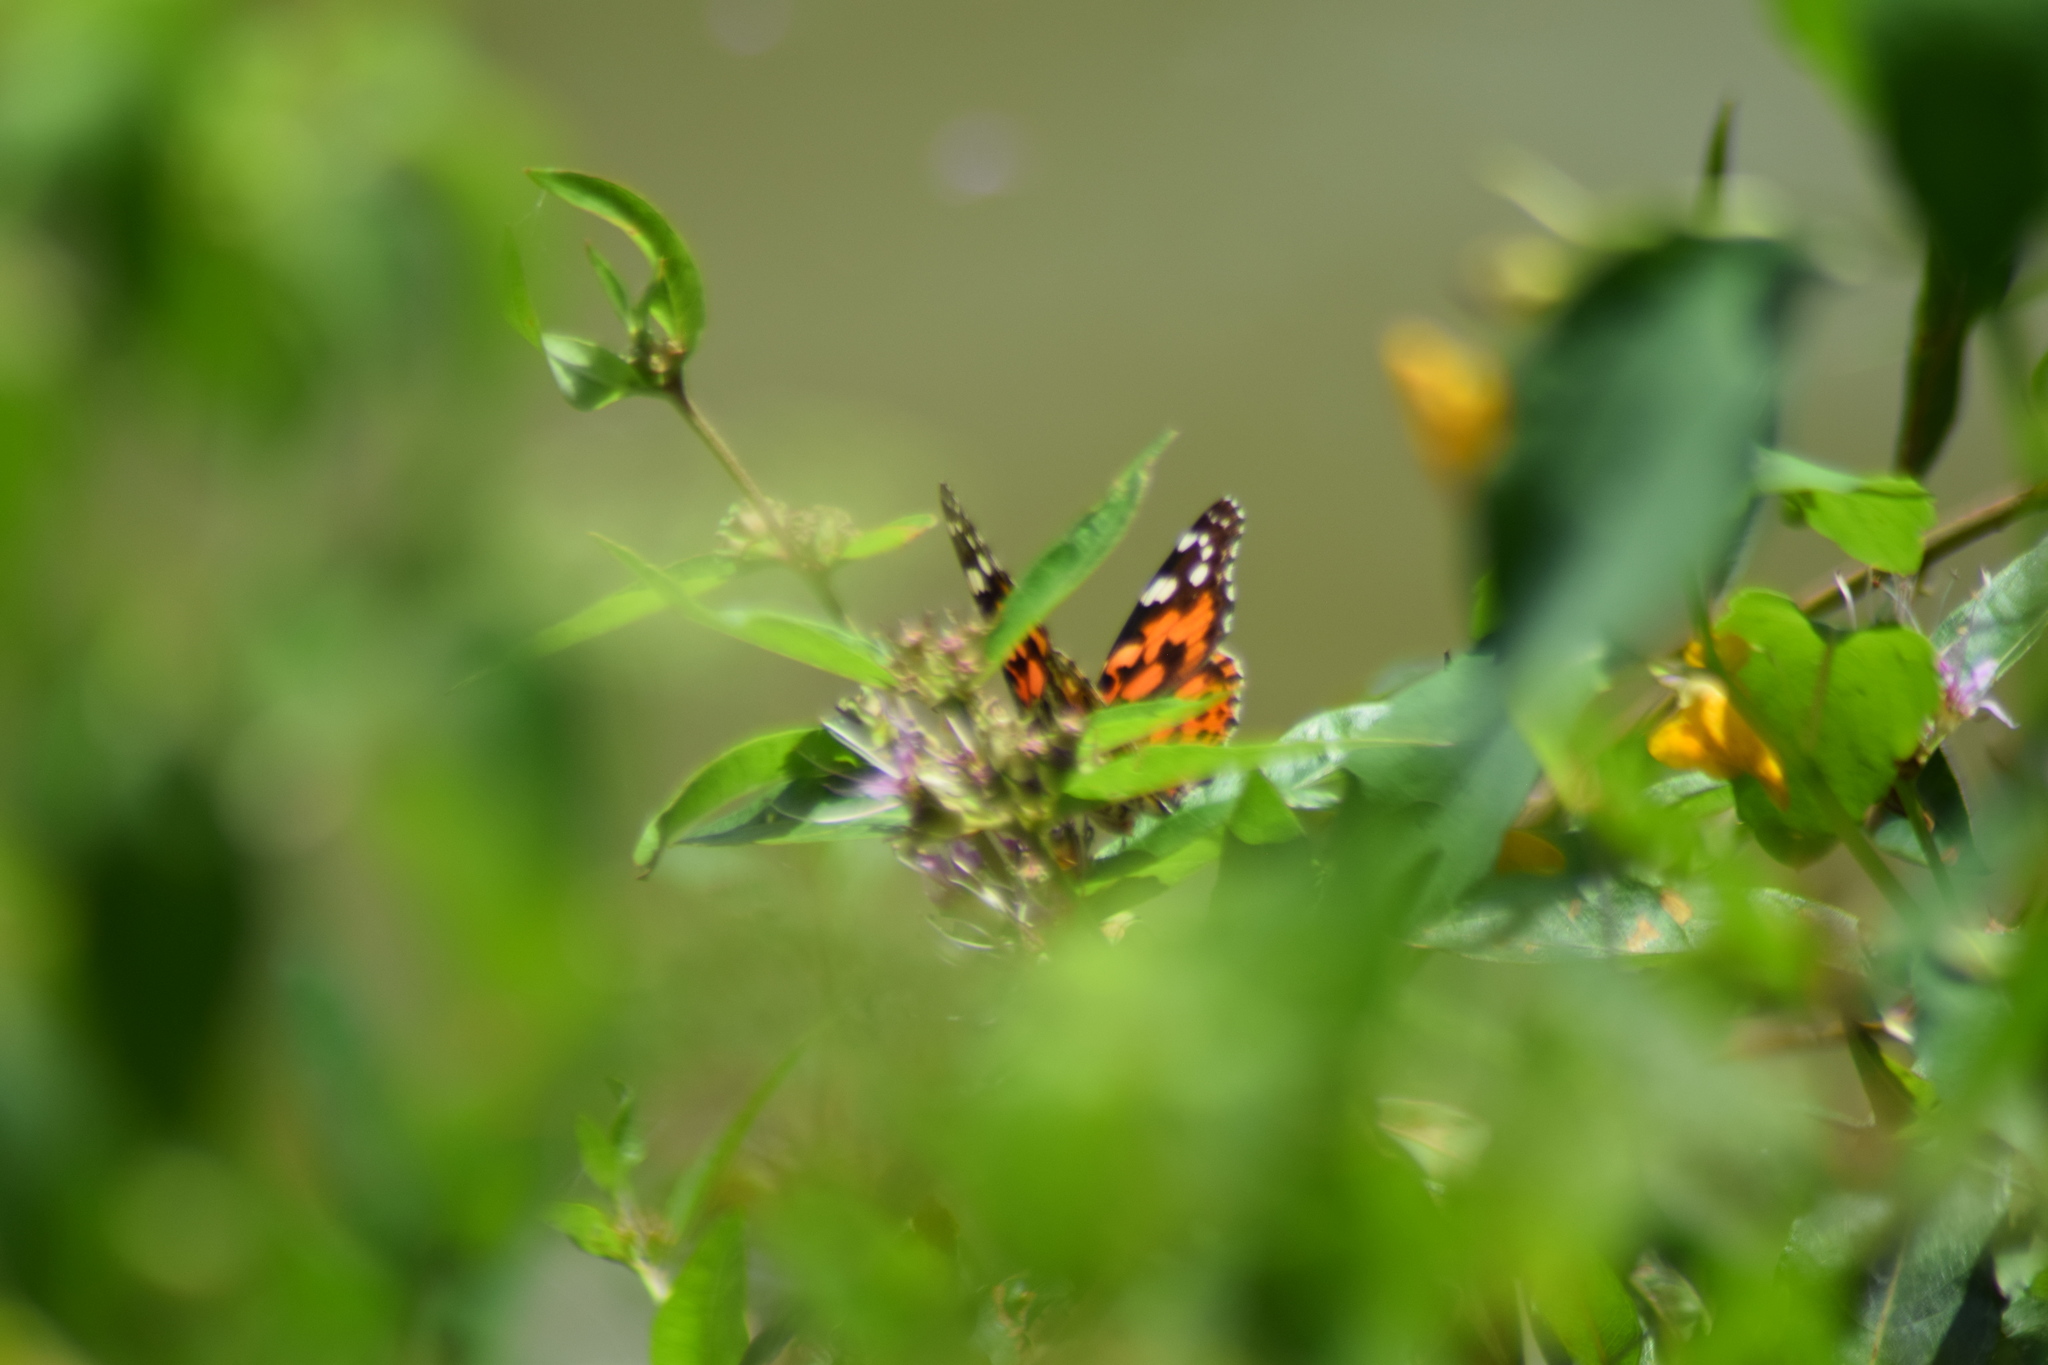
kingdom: Animalia
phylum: Arthropoda
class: Insecta
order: Lepidoptera
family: Nymphalidae
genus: Vanessa
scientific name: Vanessa cardui
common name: Painted lady
